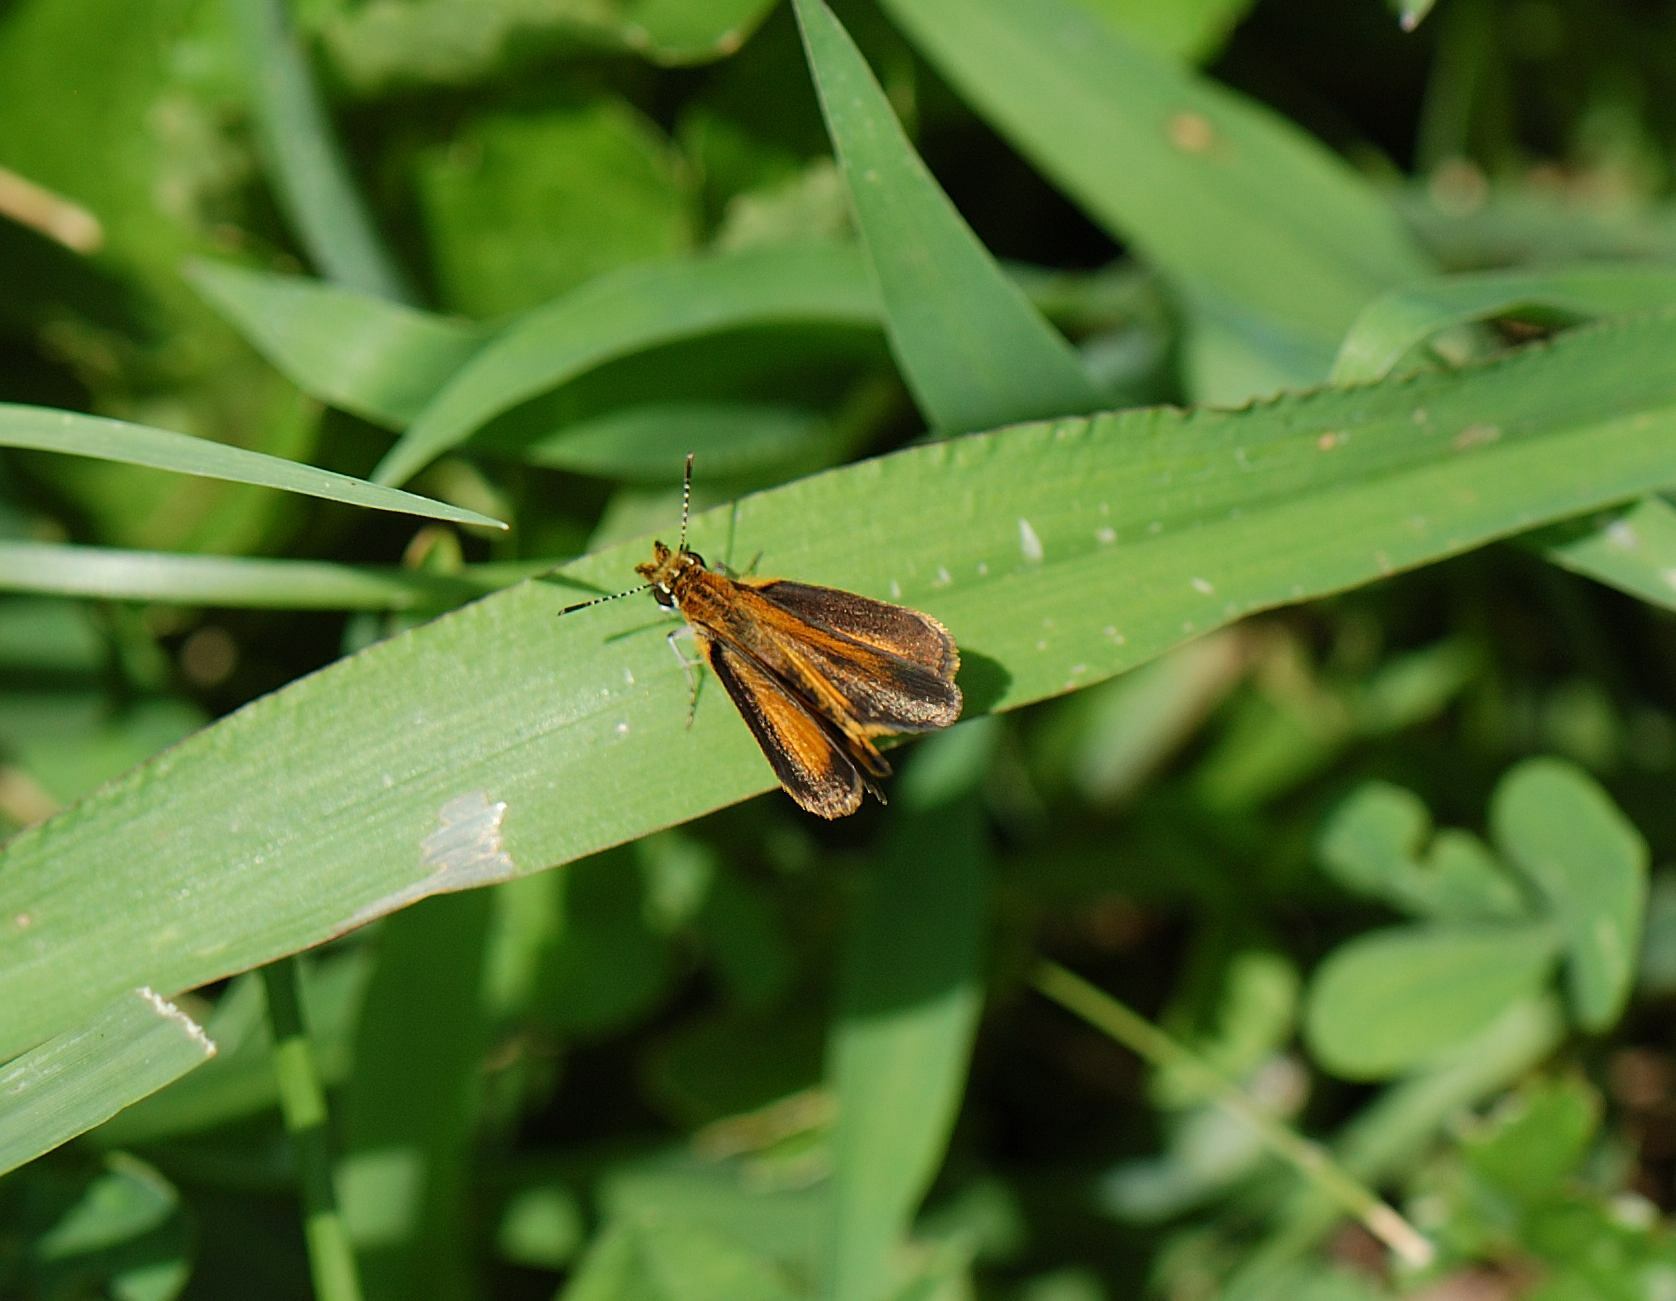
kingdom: Animalia
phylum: Arthropoda
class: Insecta
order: Lepidoptera
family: Hesperiidae
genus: Ancyloxypha
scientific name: Ancyloxypha numitor
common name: Least skipper
